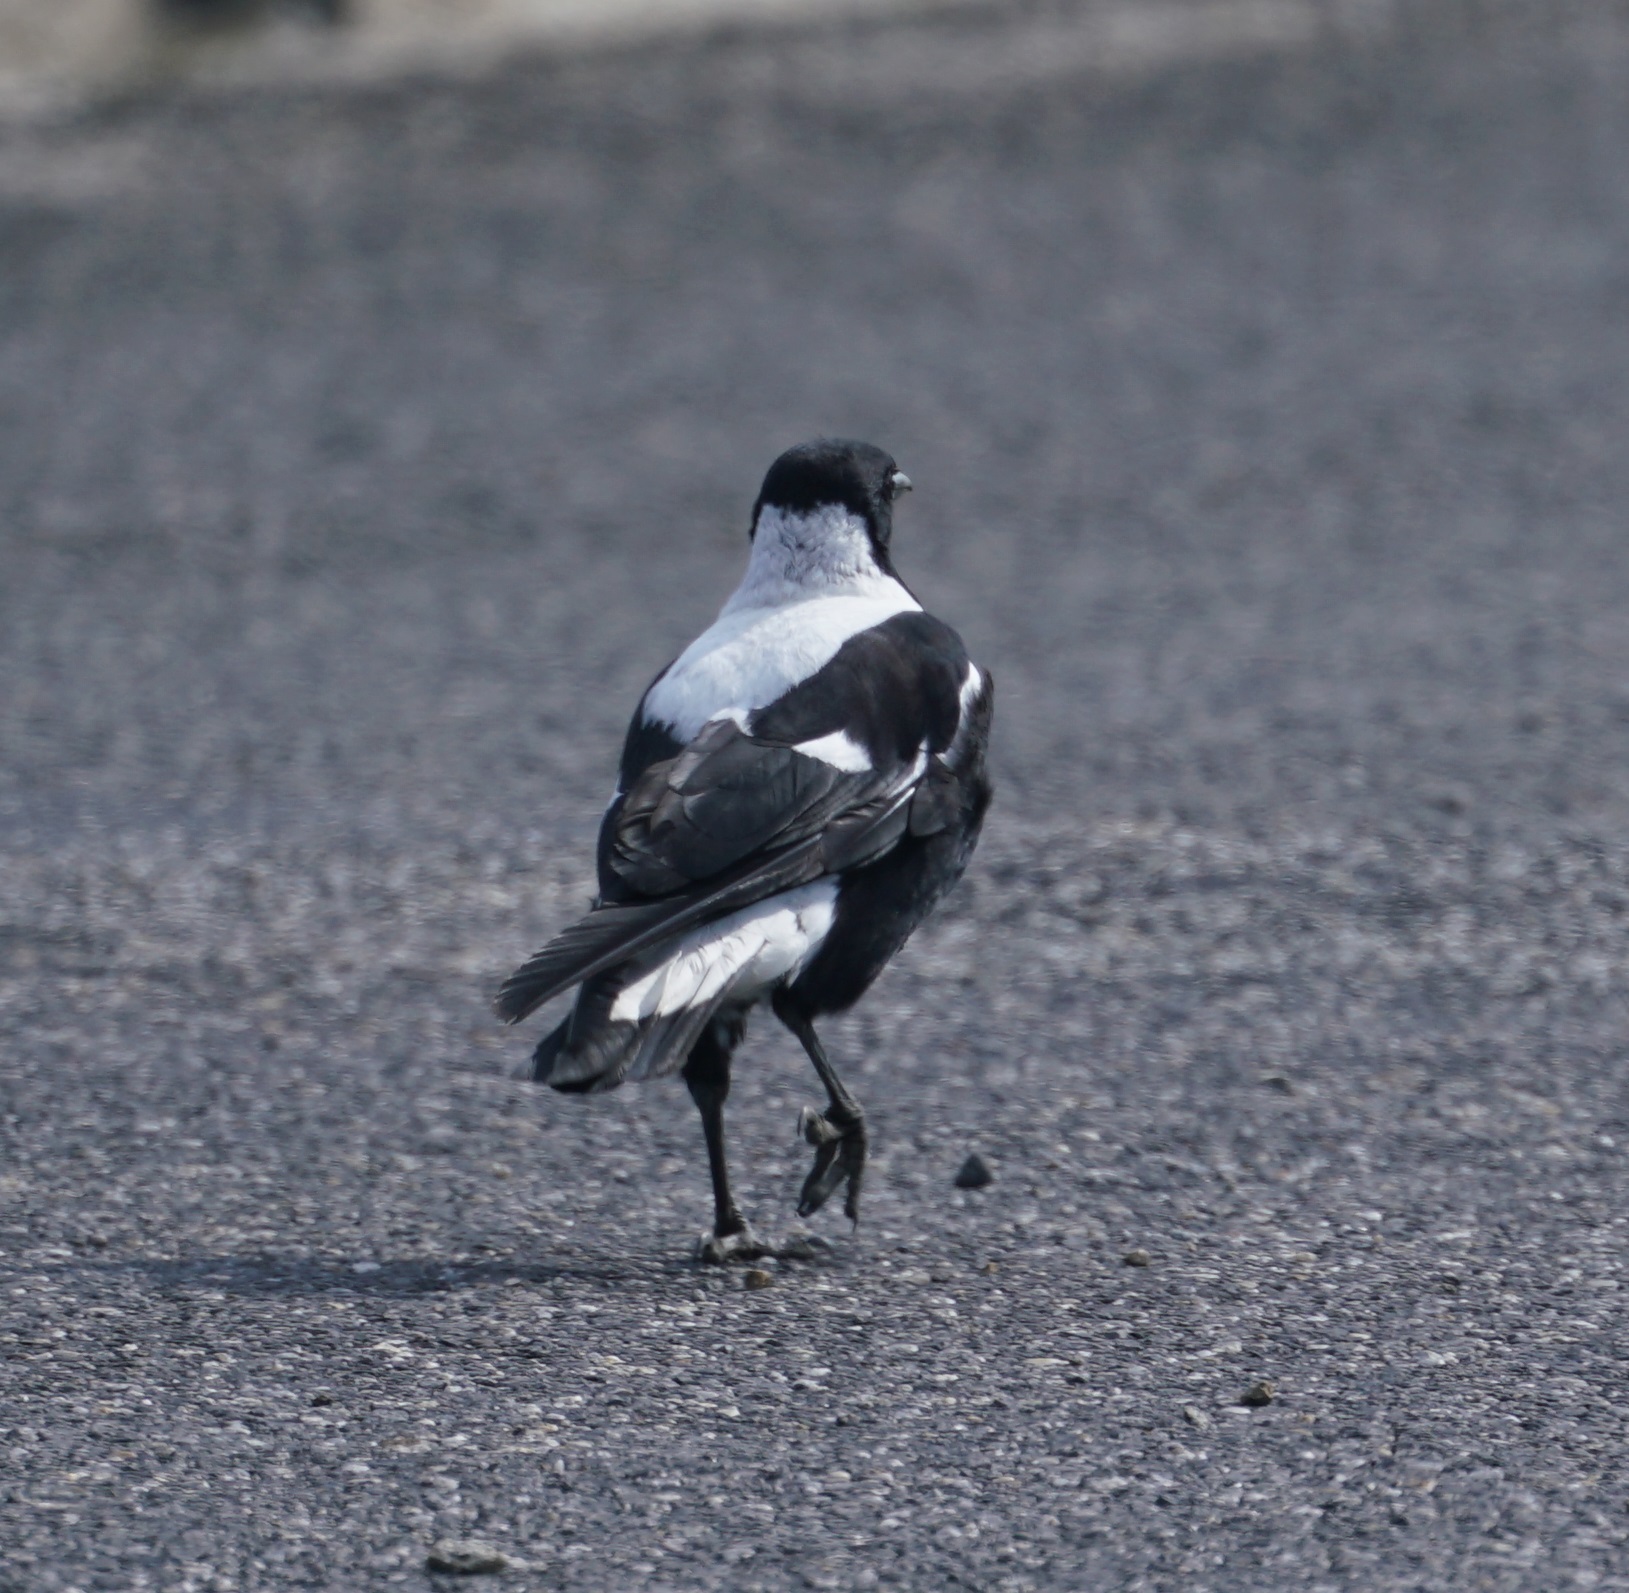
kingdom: Animalia
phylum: Chordata
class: Aves
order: Passeriformes
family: Cracticidae
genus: Gymnorhina
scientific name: Gymnorhina tibicen
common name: Australian magpie
